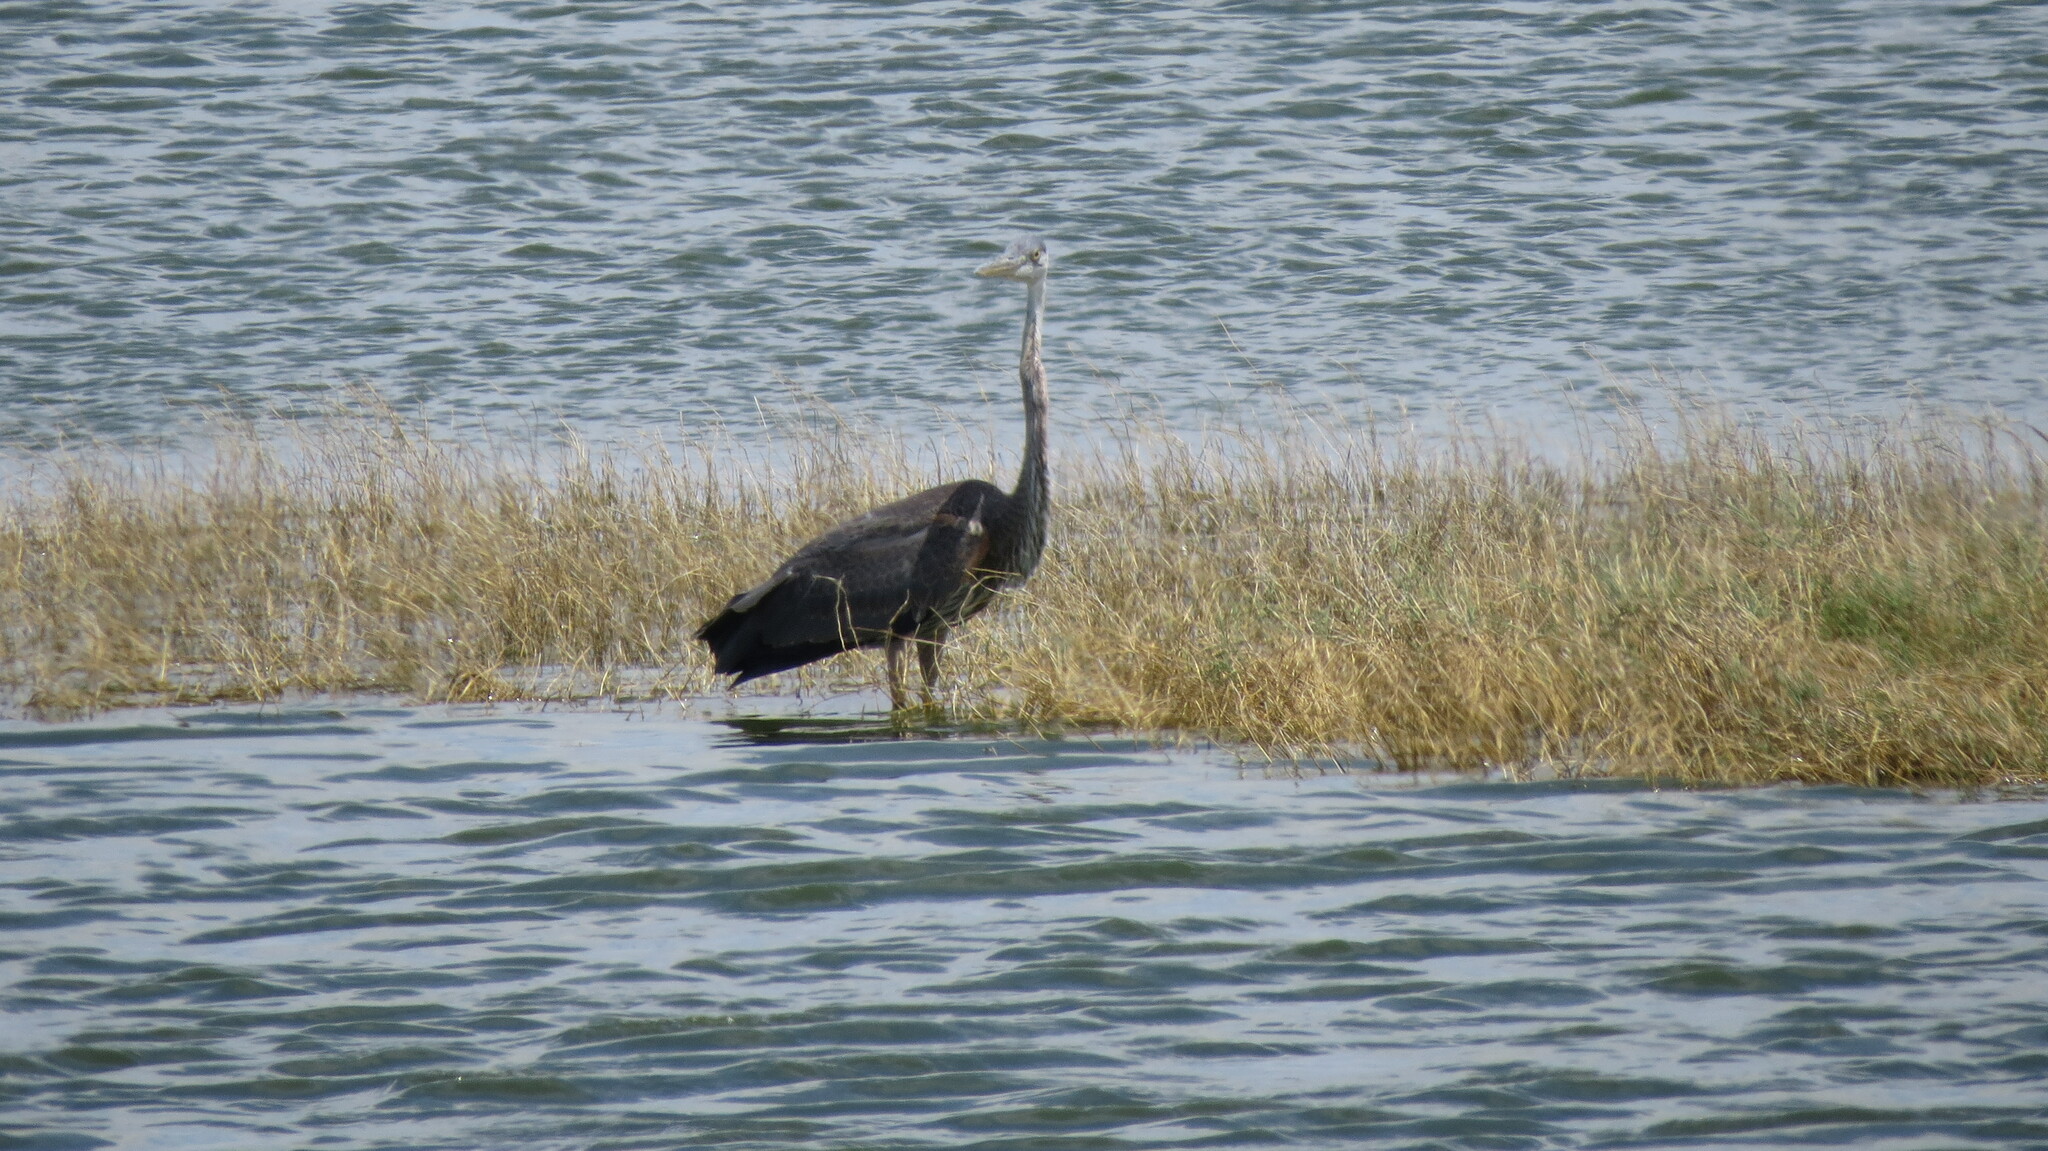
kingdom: Animalia
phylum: Chordata
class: Aves
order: Pelecaniformes
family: Ardeidae
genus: Ardea
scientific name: Ardea herodias
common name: Great blue heron
